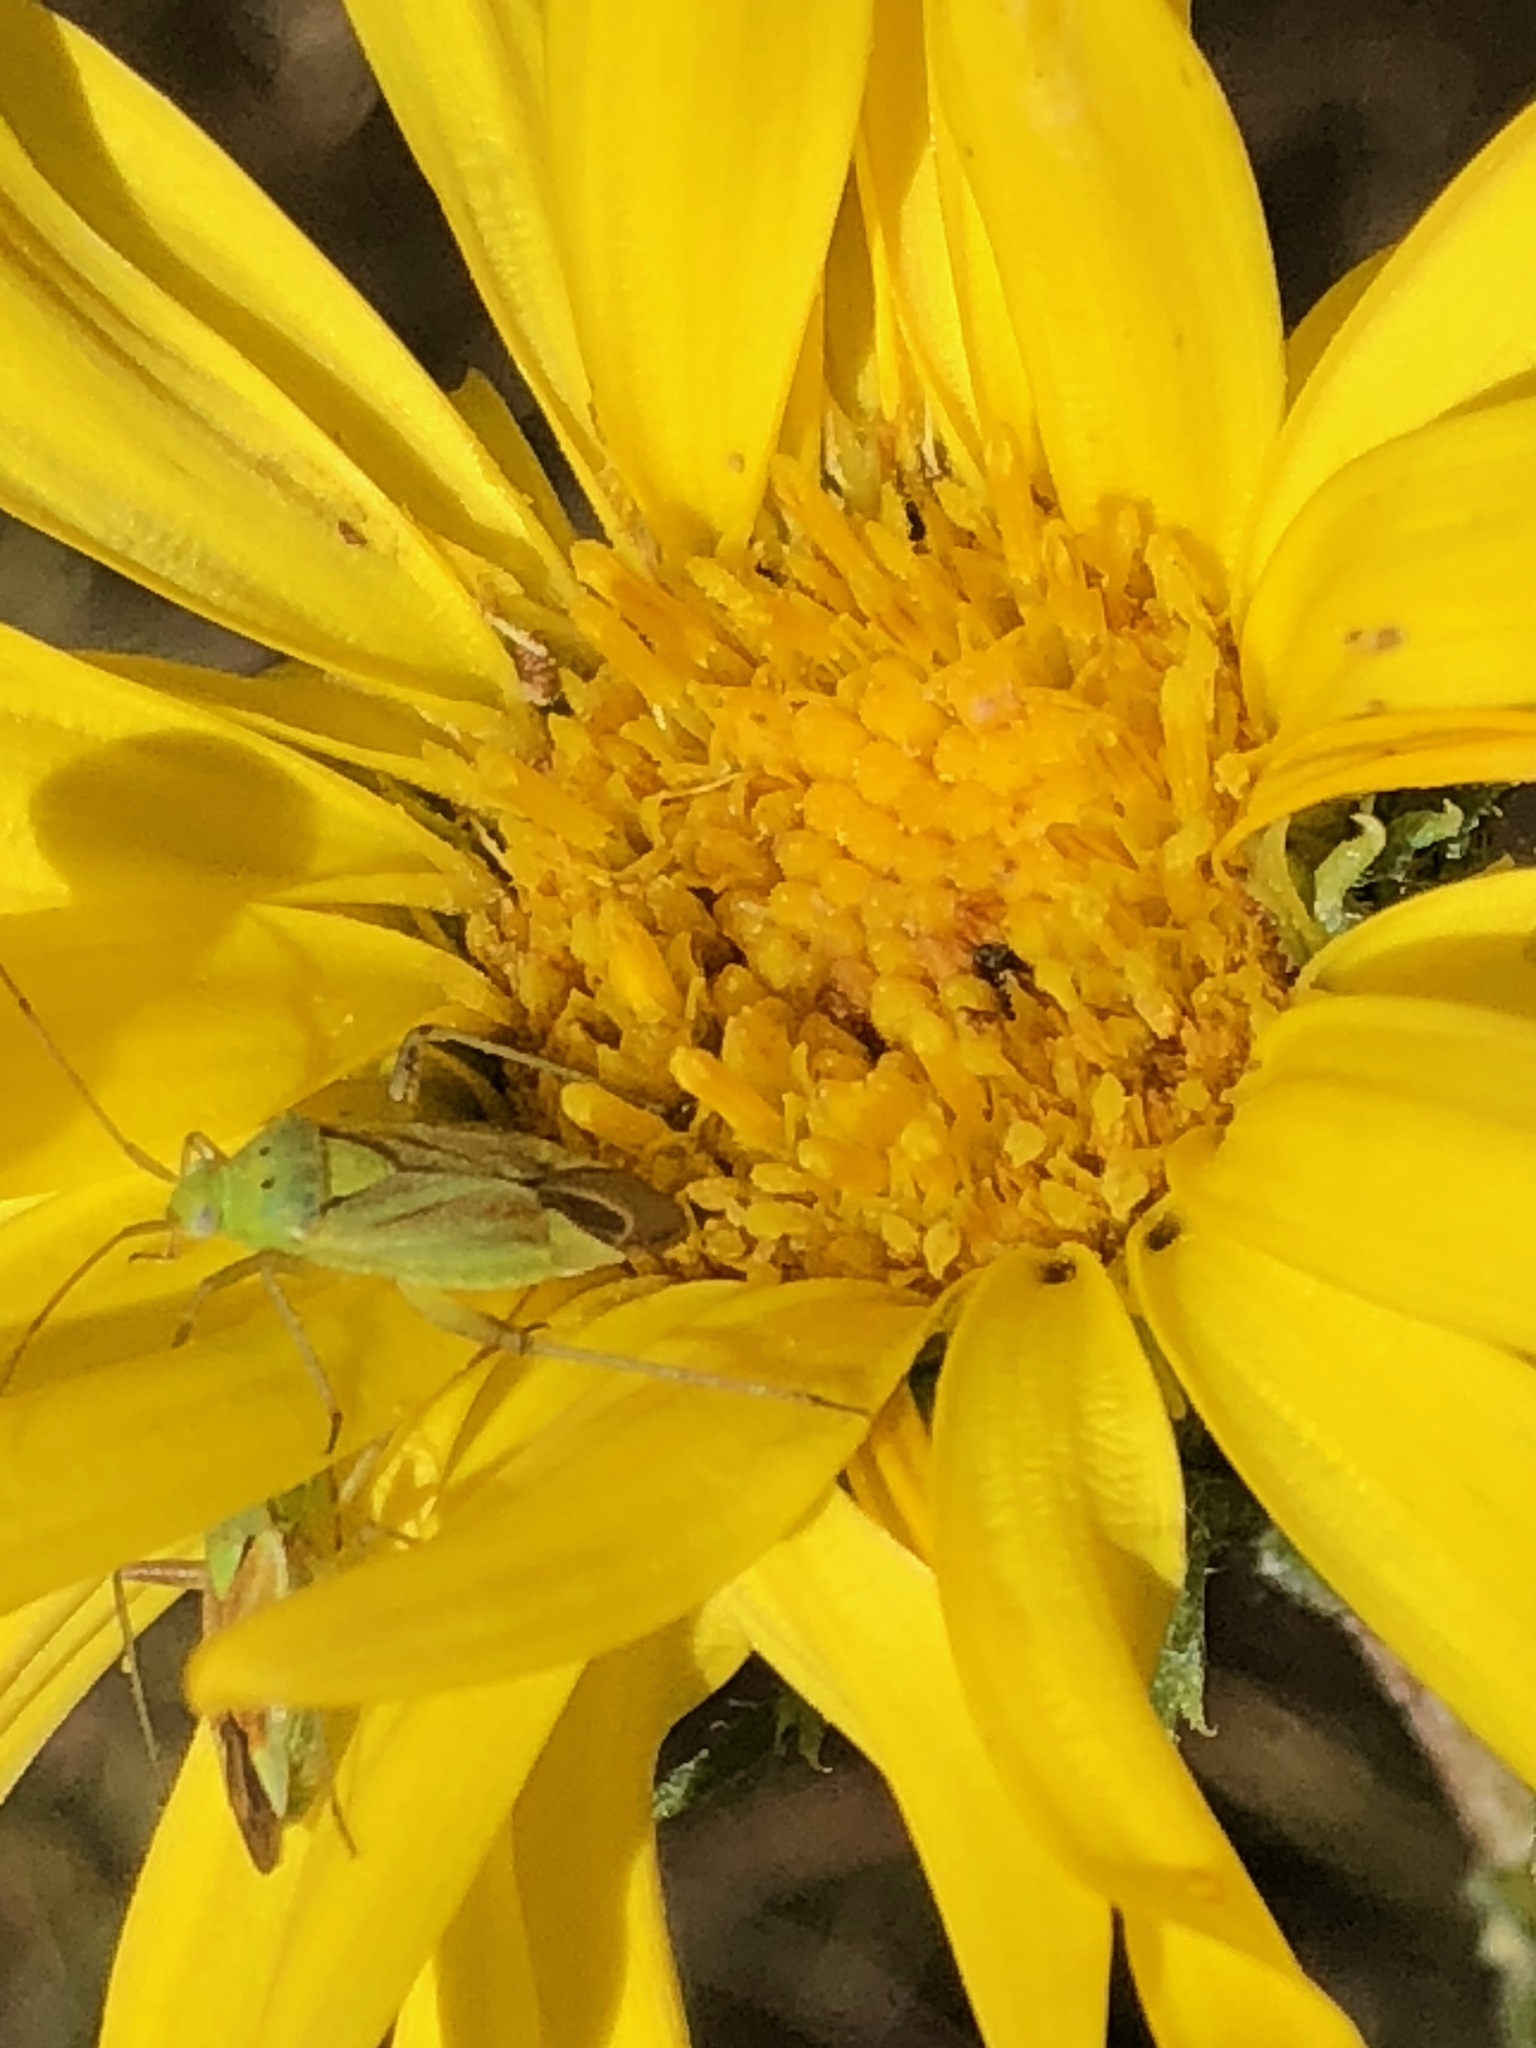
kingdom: Animalia
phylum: Arthropoda
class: Insecta
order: Hemiptera
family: Miridae
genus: Closterotomus
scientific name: Closterotomus norvegicus
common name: Plant bug
